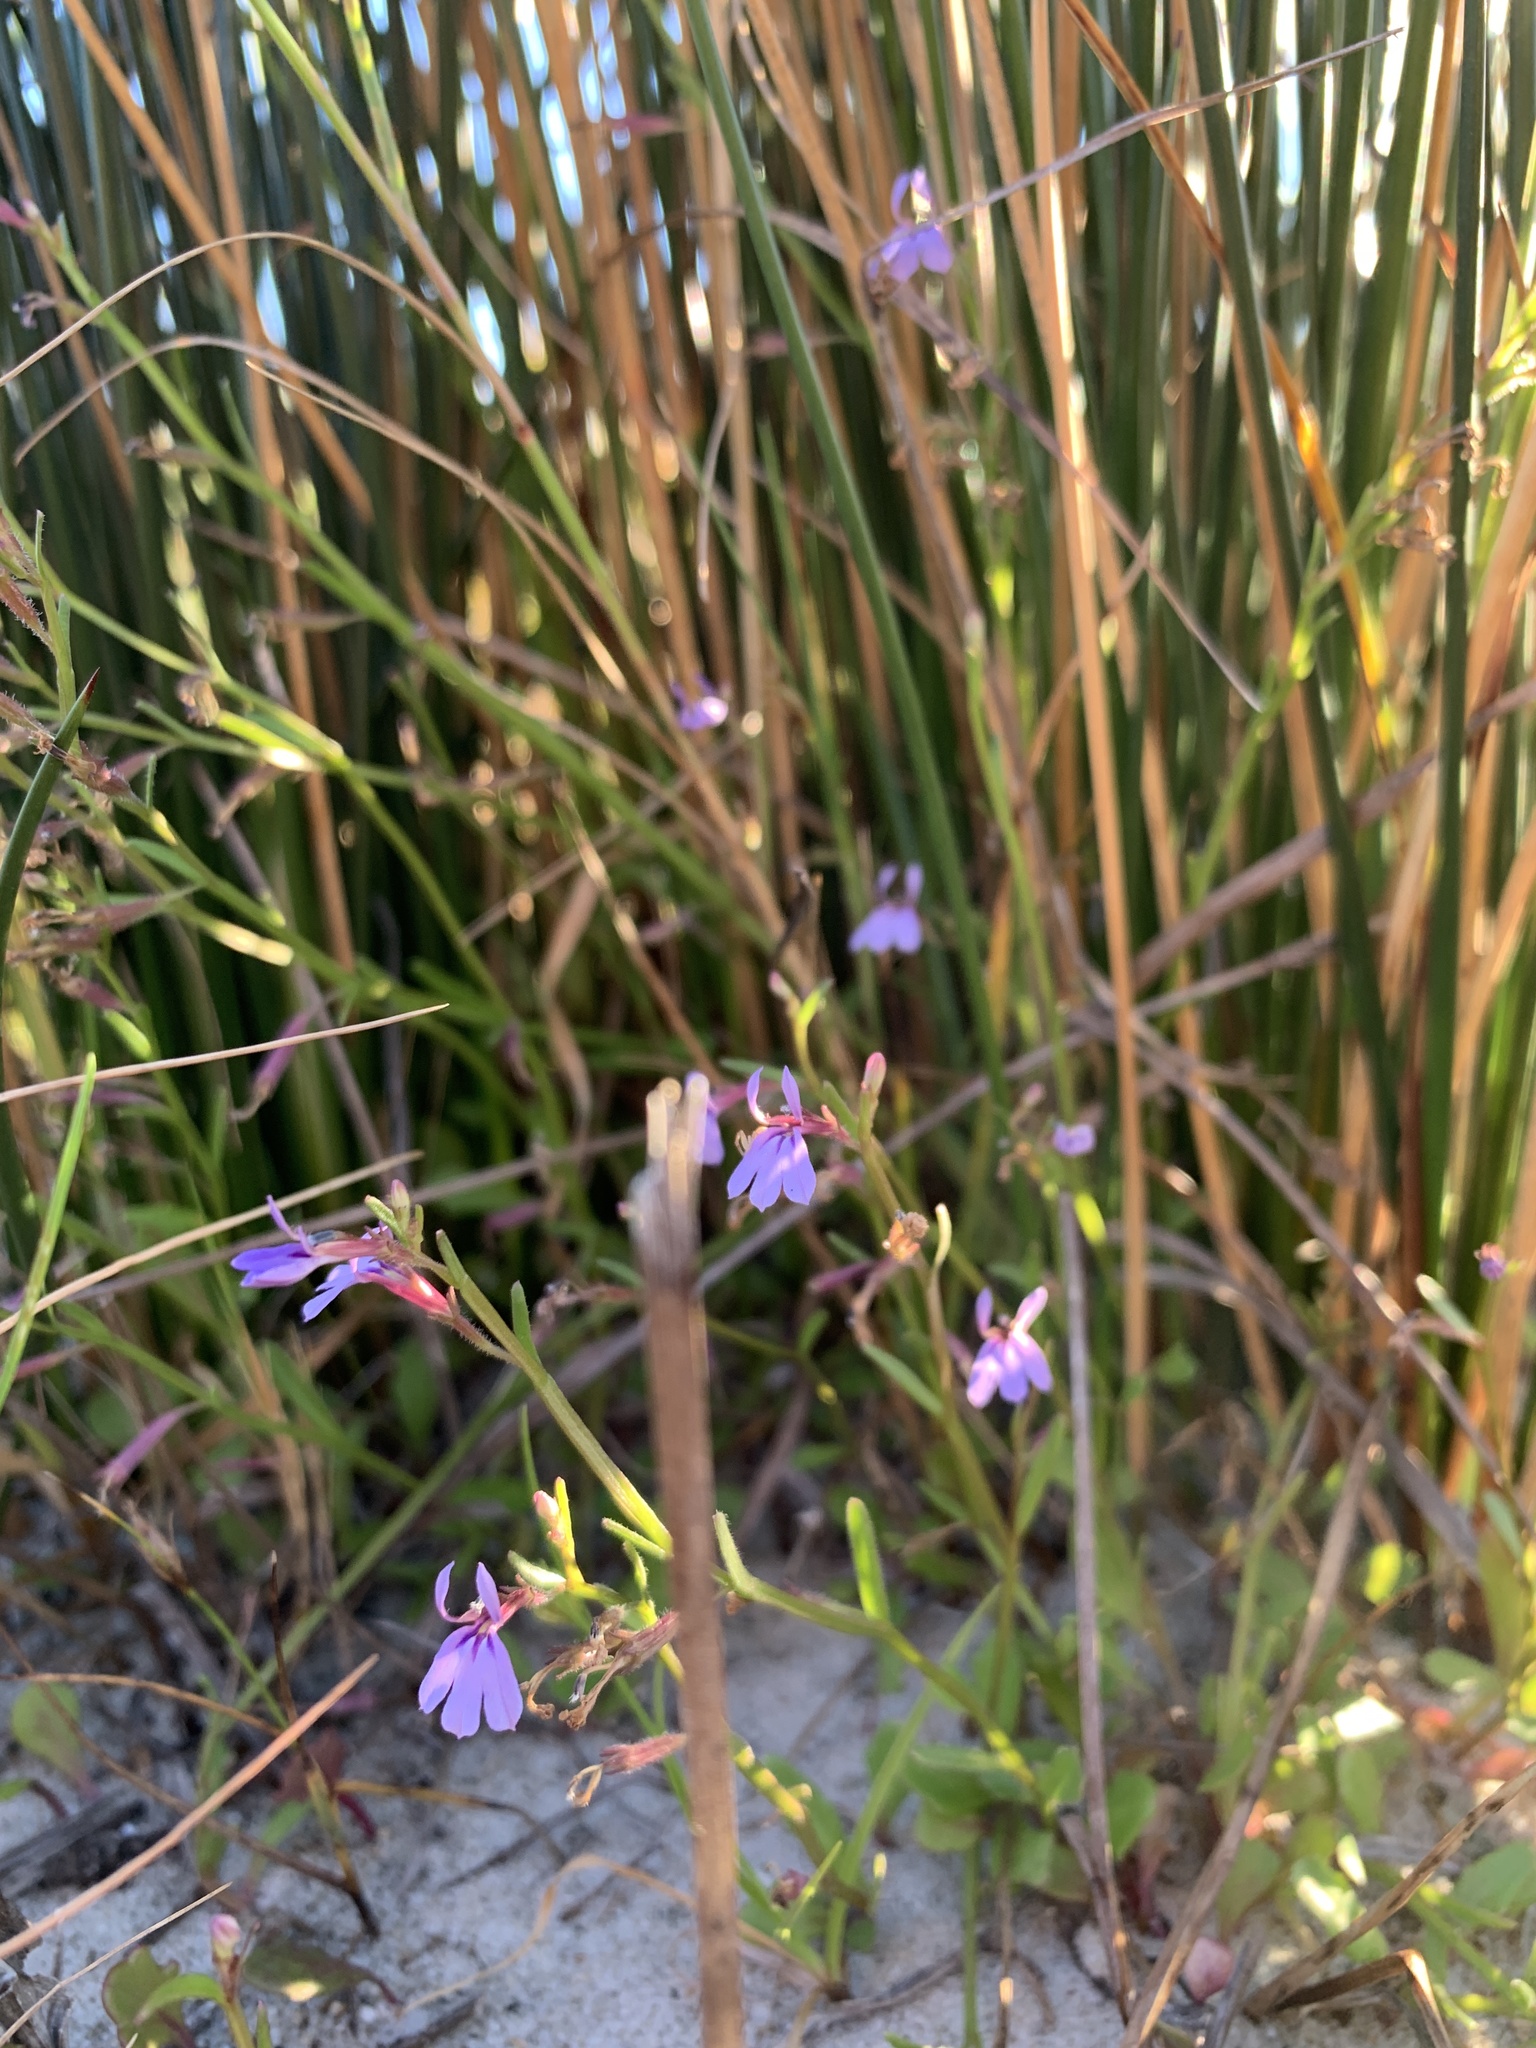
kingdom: Plantae
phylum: Tracheophyta
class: Magnoliopsida
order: Asterales
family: Campanulaceae
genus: Lobelia
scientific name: Lobelia anceps
